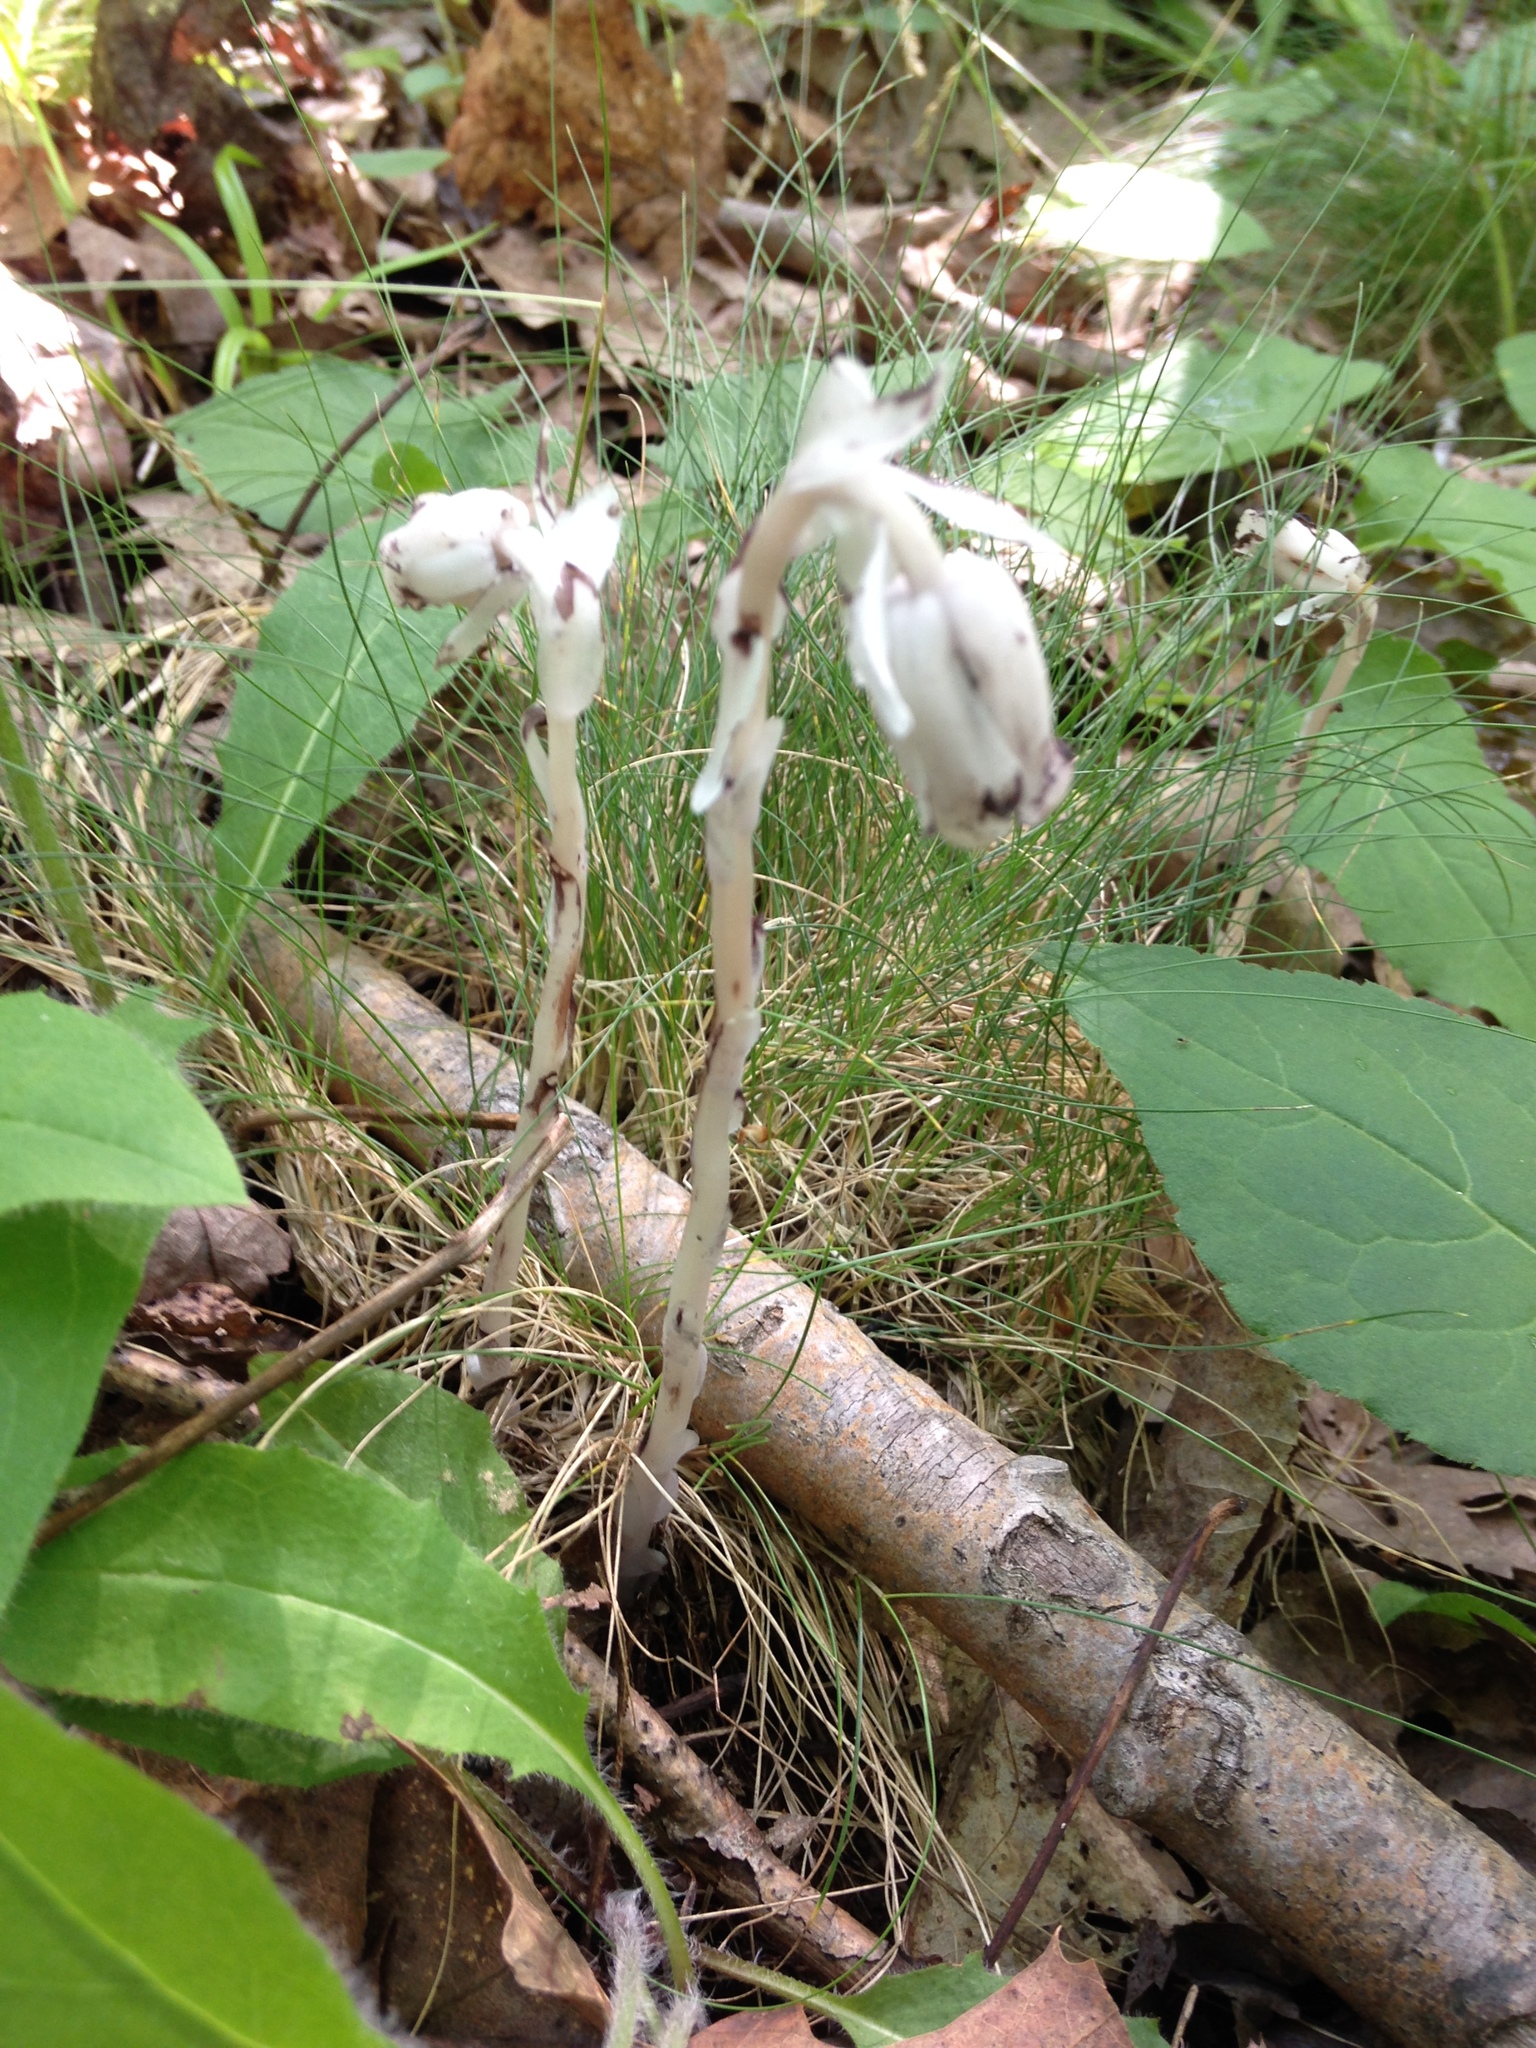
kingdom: Plantae
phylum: Tracheophyta
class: Magnoliopsida
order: Ericales
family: Ericaceae
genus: Monotropa
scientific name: Monotropa uniflora
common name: Convulsion root
